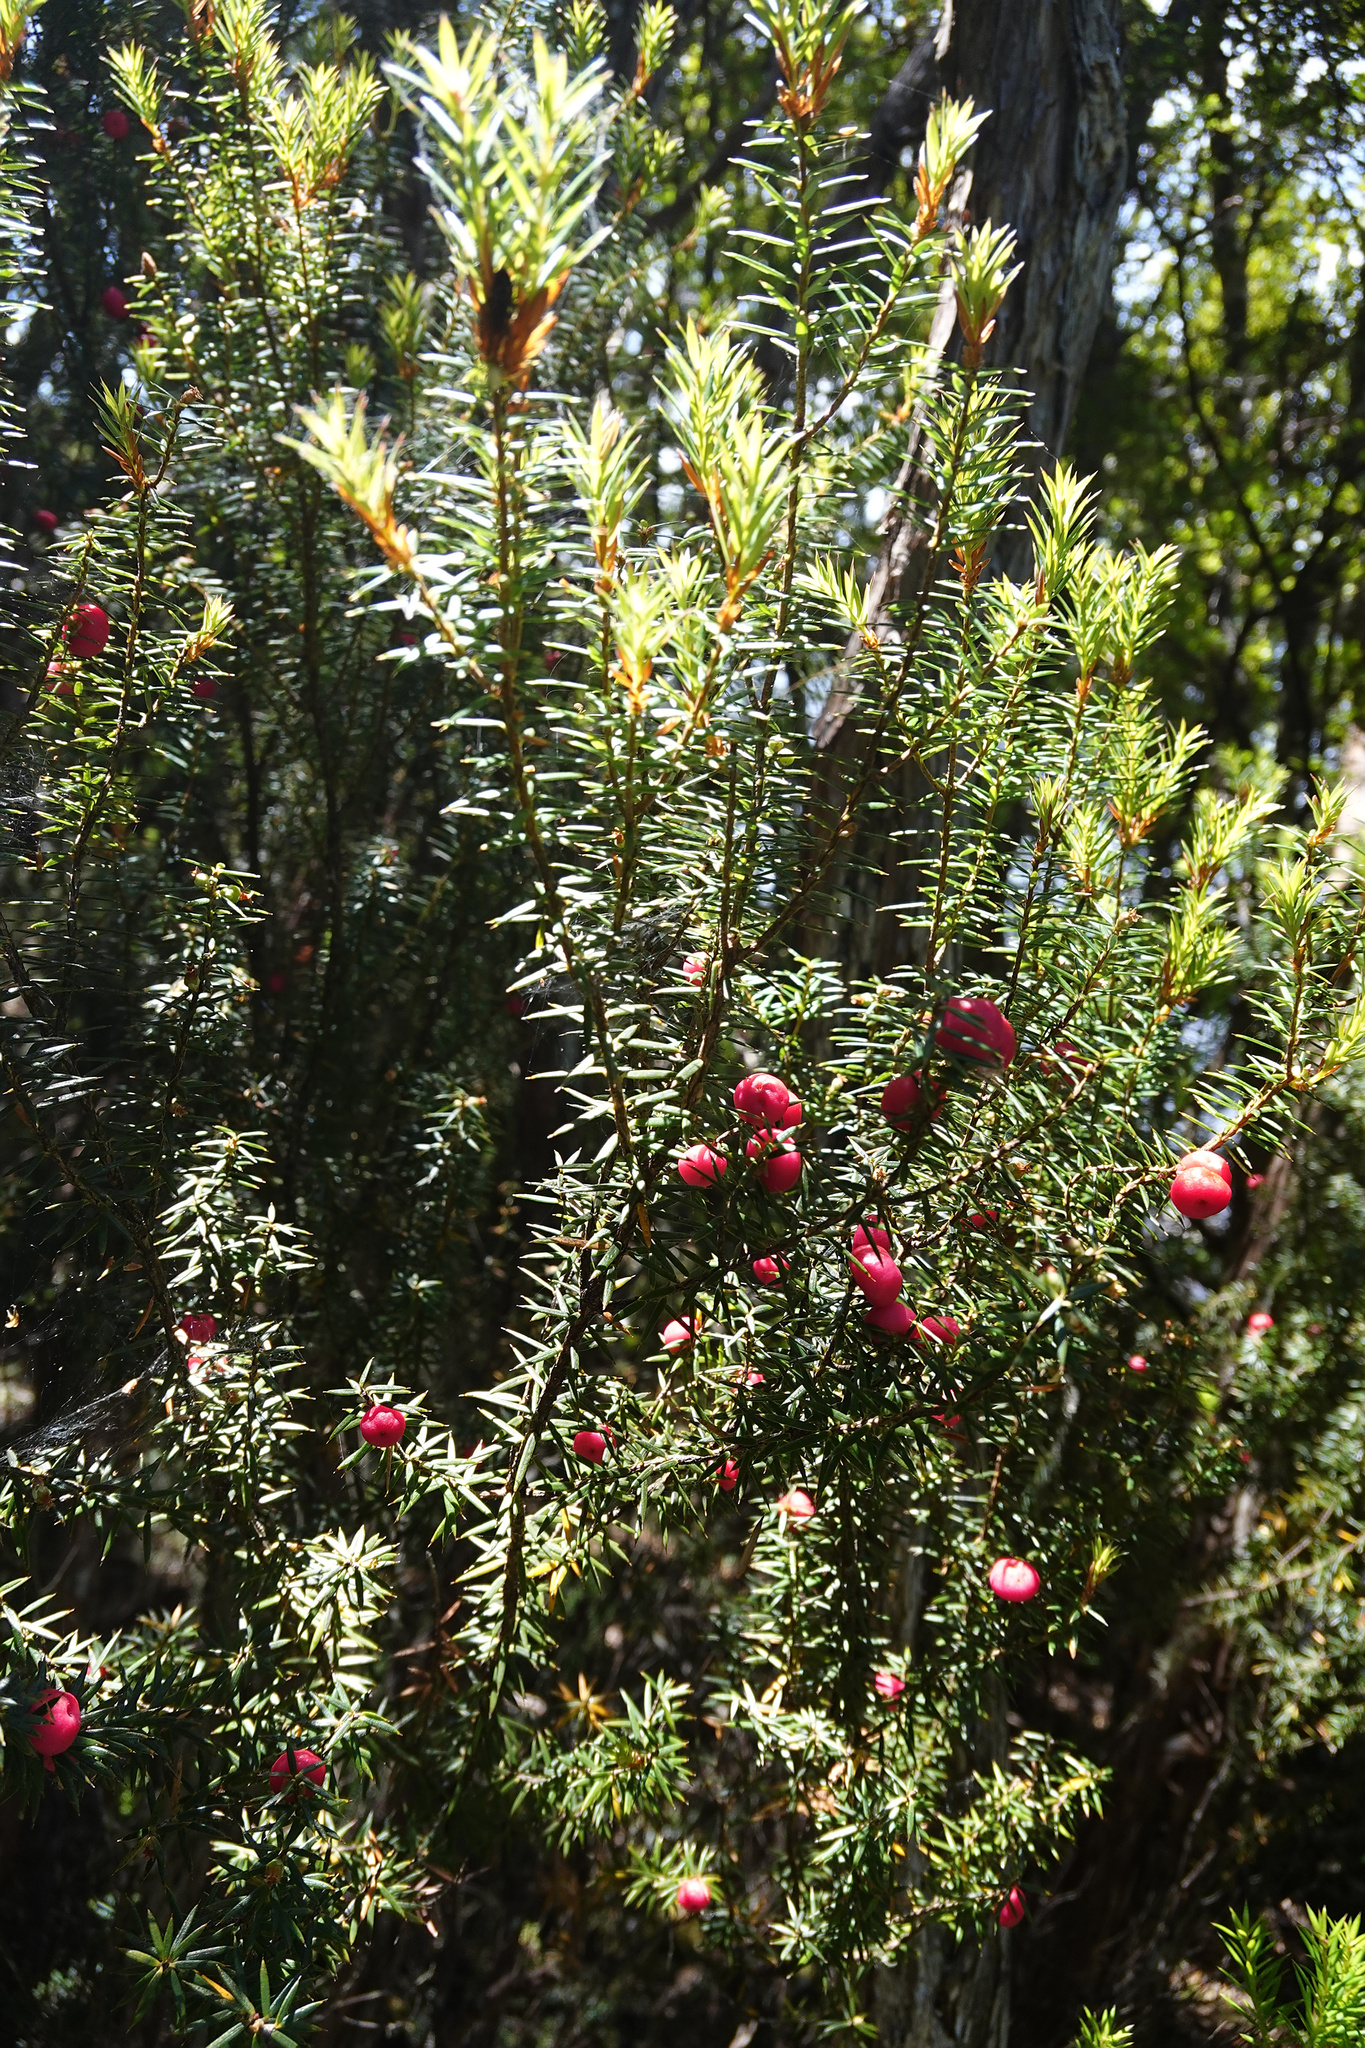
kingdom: Plantae
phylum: Tracheophyta
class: Magnoliopsida
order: Ericales
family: Ericaceae
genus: Leptecophylla
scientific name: Leptecophylla parvifolia
